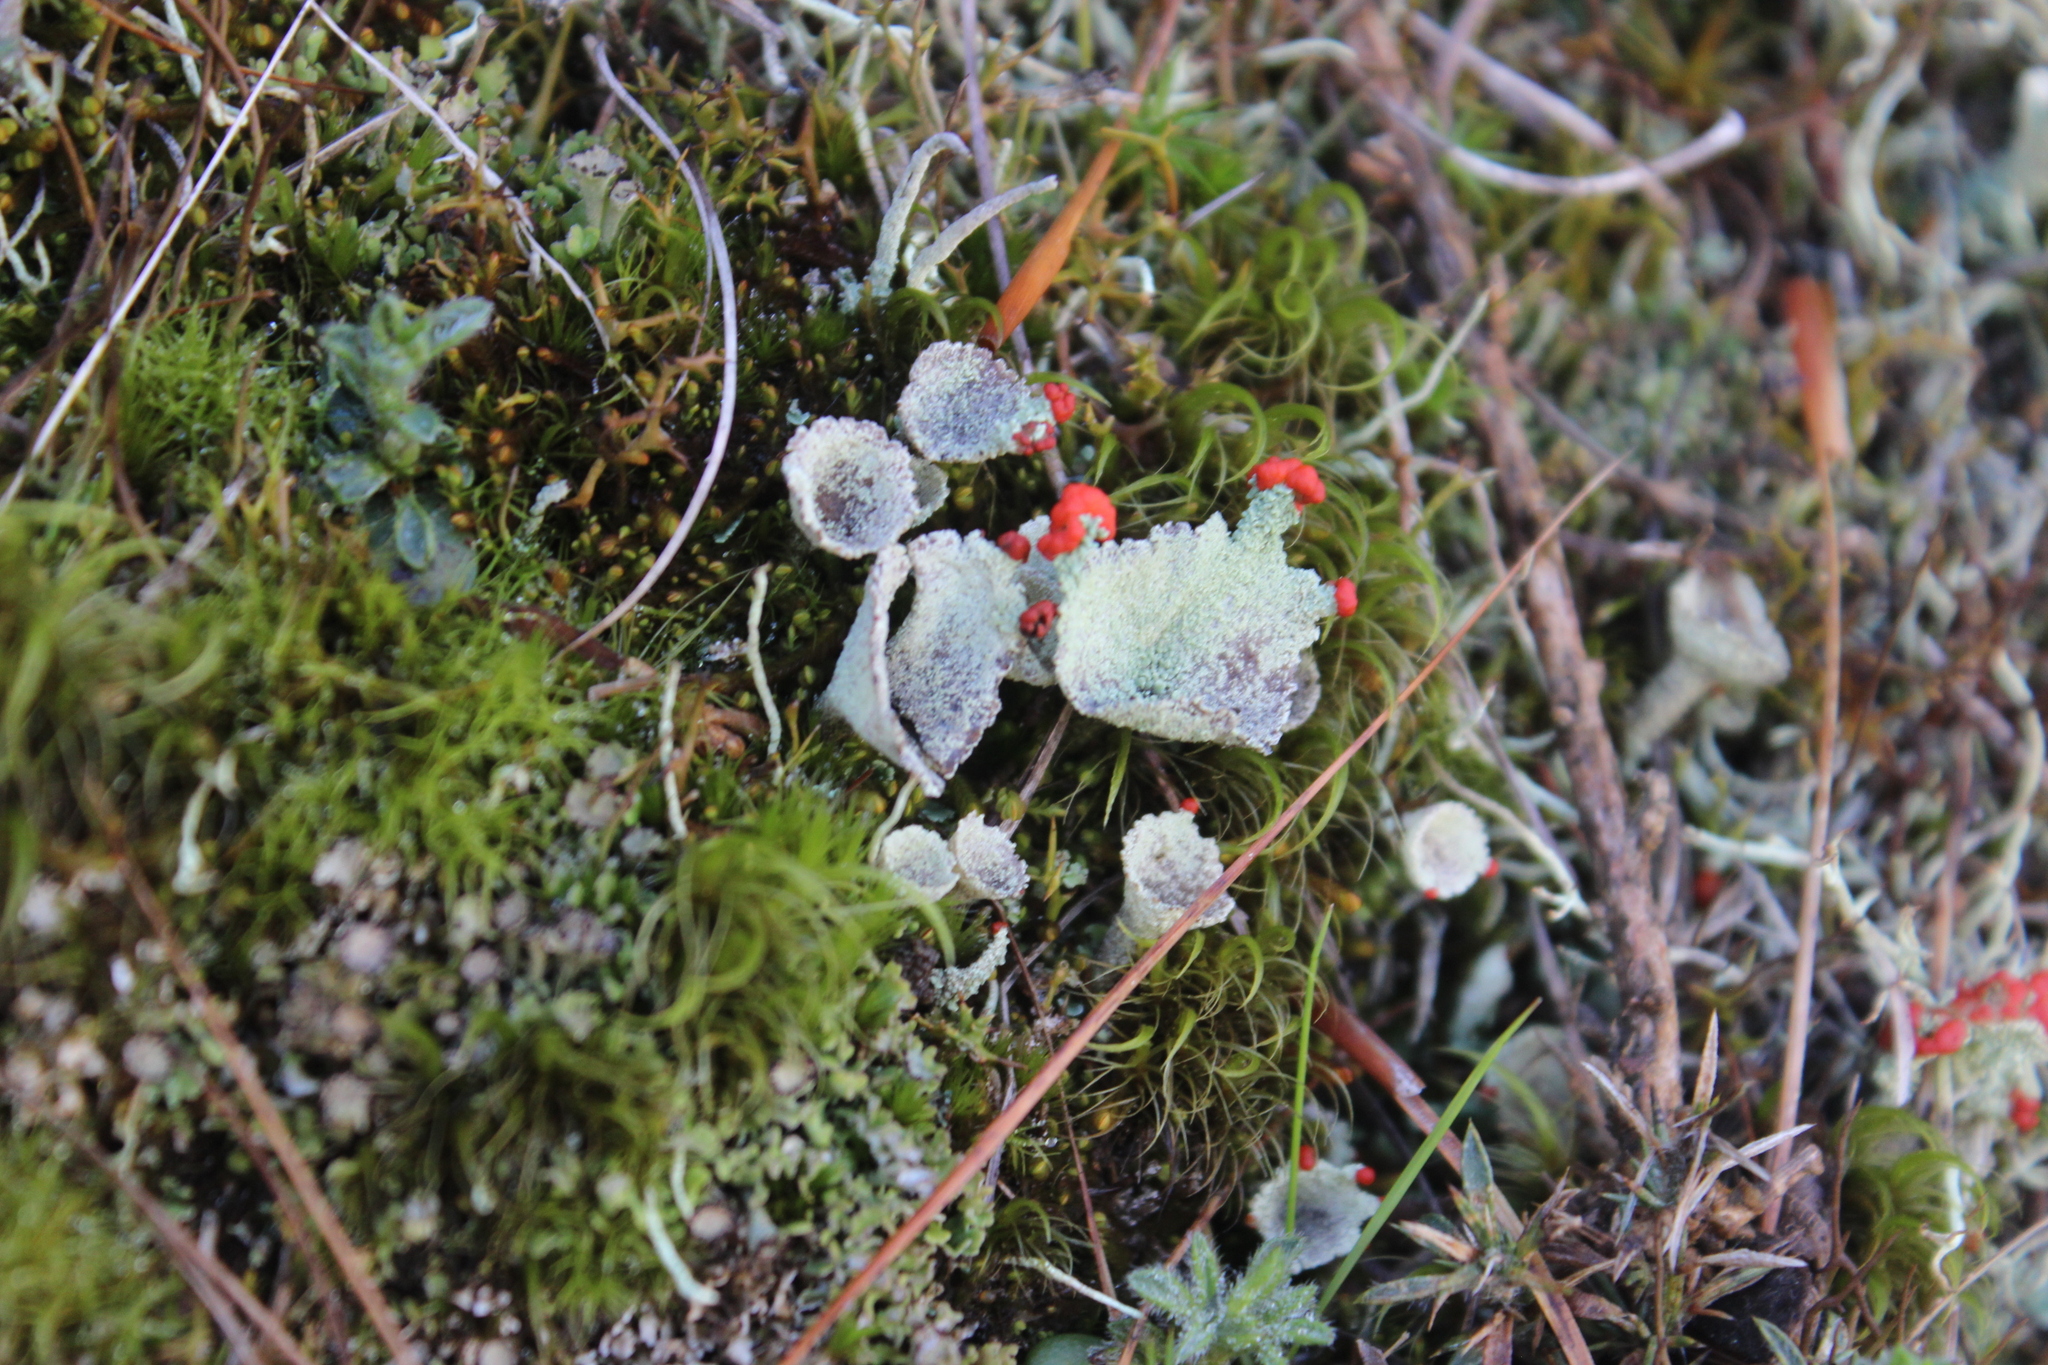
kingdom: Fungi
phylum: Ascomycota
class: Lecanoromycetes
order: Lecanorales
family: Cladoniaceae
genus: Cladonia
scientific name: Cladonia pleurota
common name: Red-fruited pixie cup
